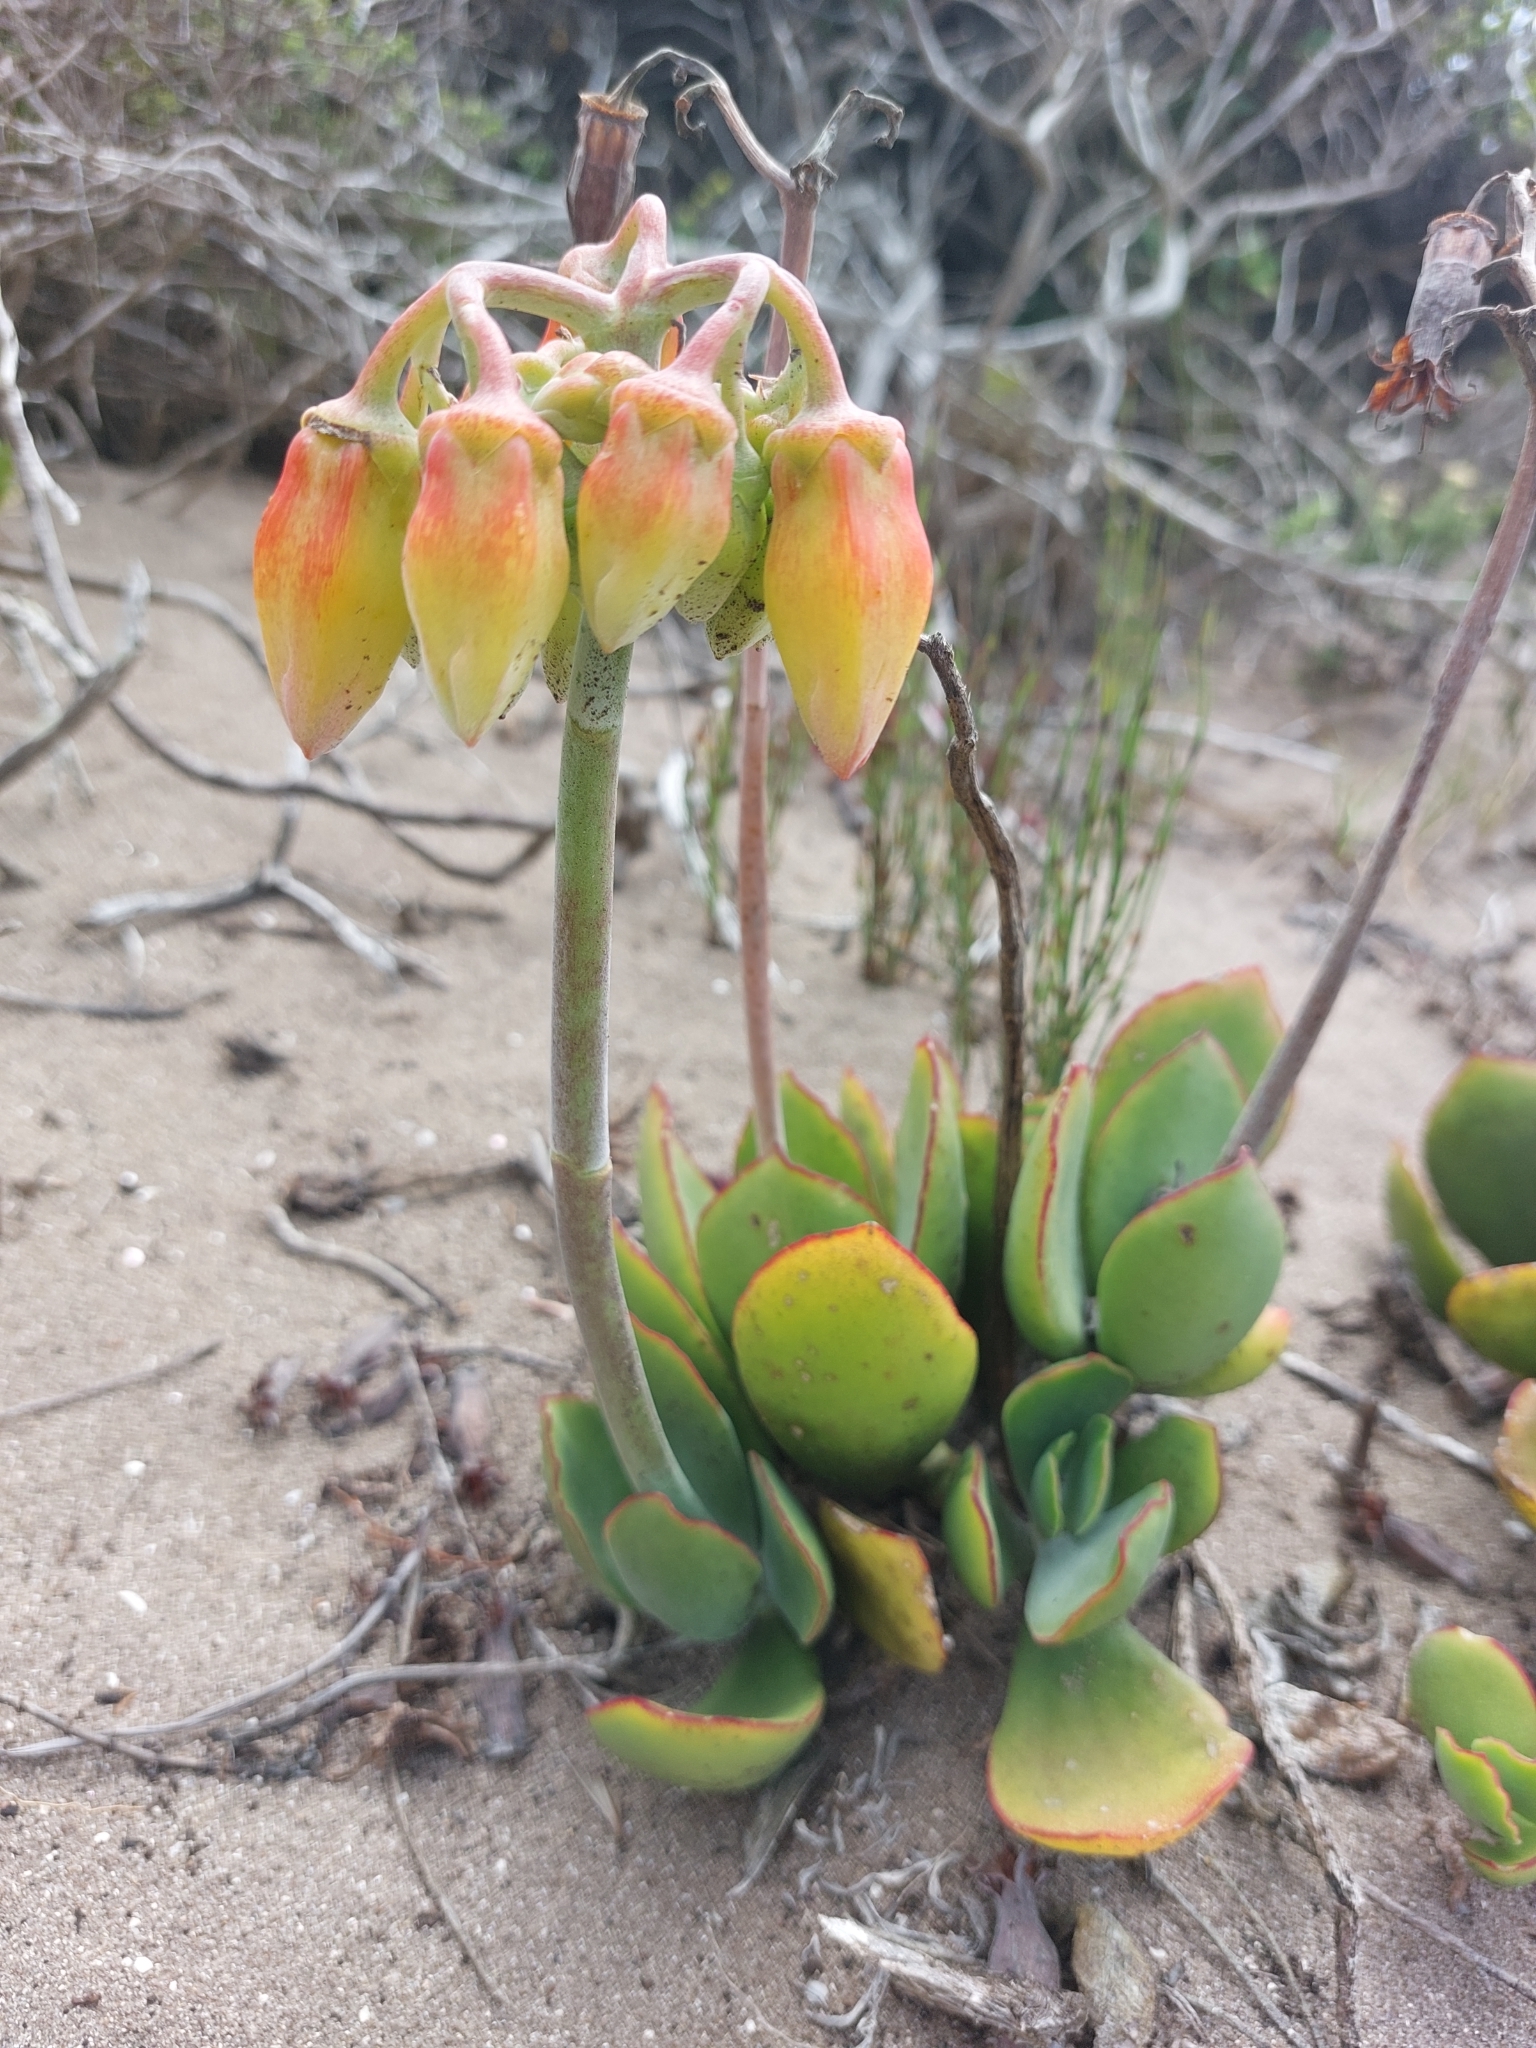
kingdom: Plantae
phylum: Tracheophyta
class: Magnoliopsida
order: Saxifragales
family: Crassulaceae
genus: Cotyledon
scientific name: Cotyledon orbiculata
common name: Pig's ear
